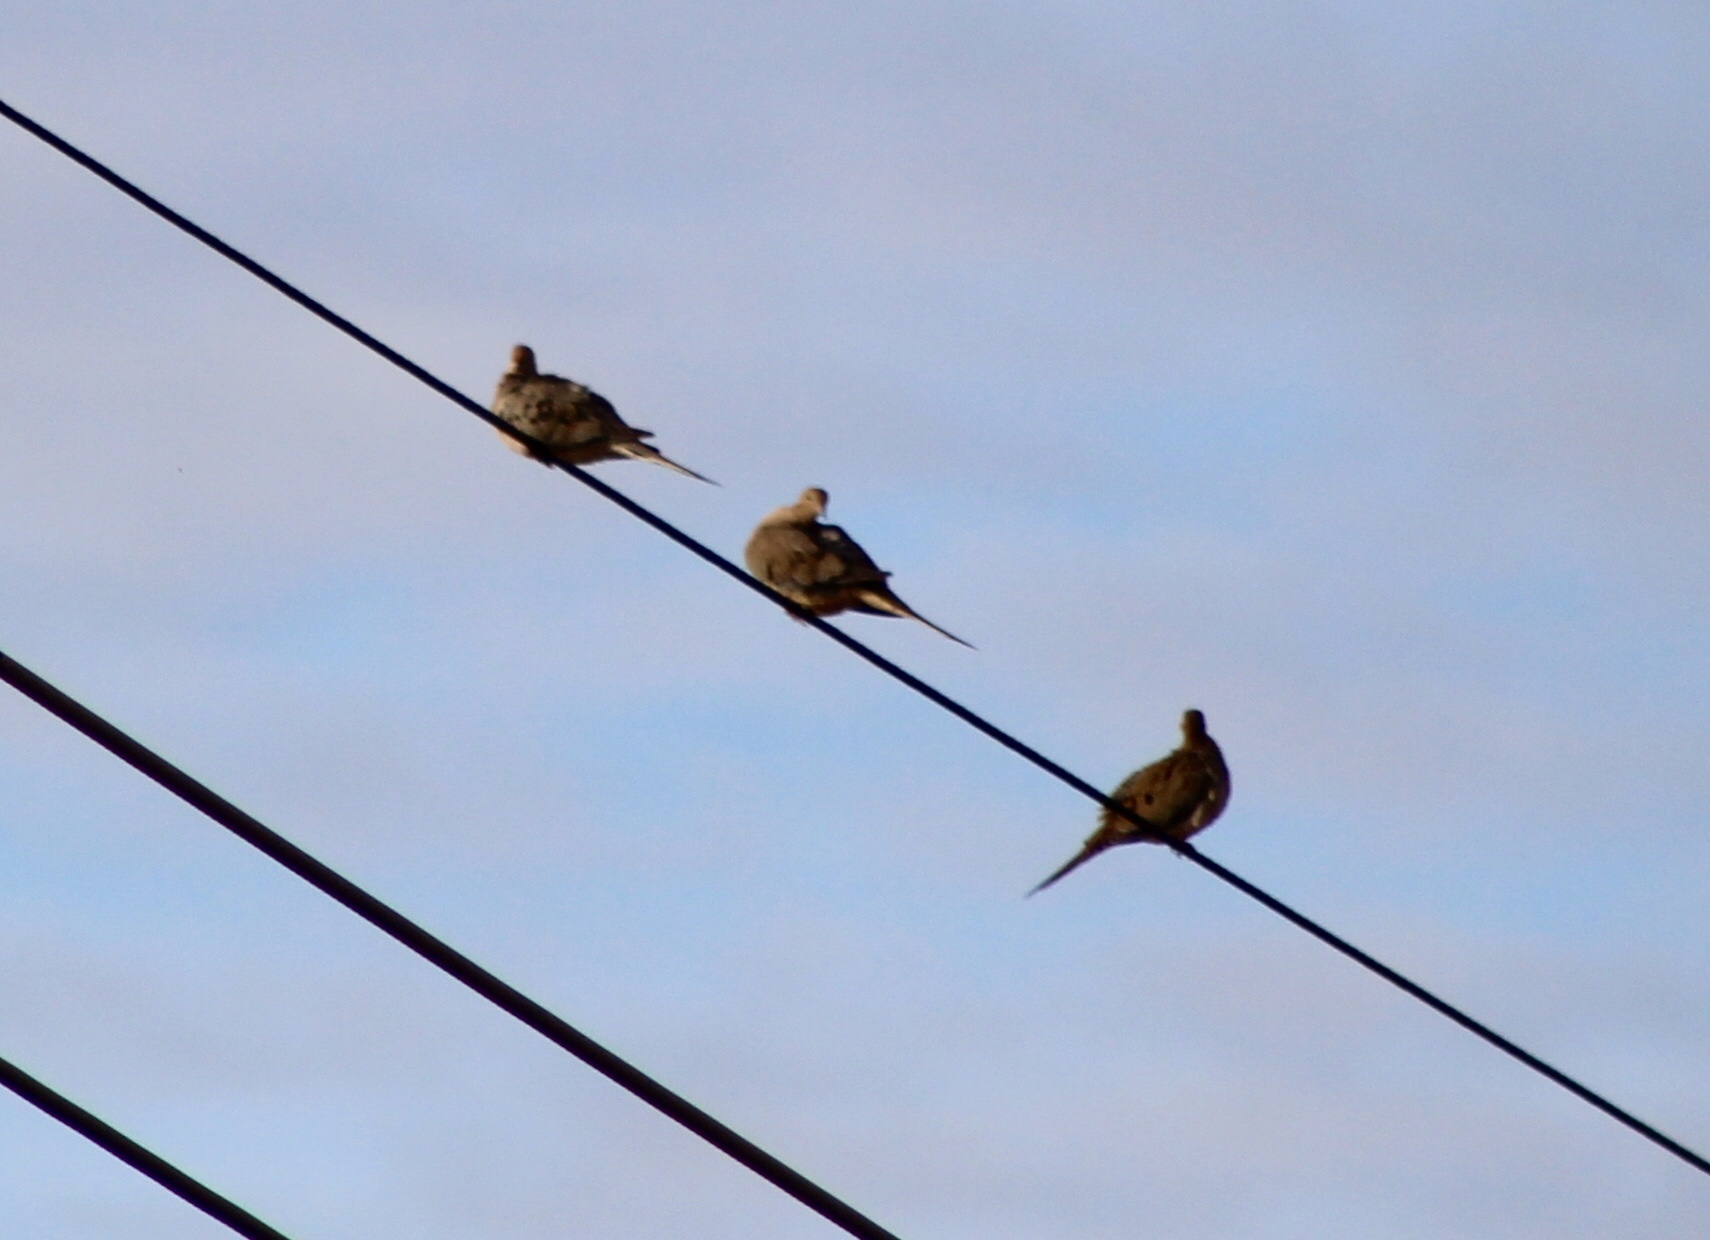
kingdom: Animalia
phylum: Chordata
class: Aves
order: Columbiformes
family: Columbidae
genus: Zenaida
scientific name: Zenaida macroura
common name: Mourning dove
